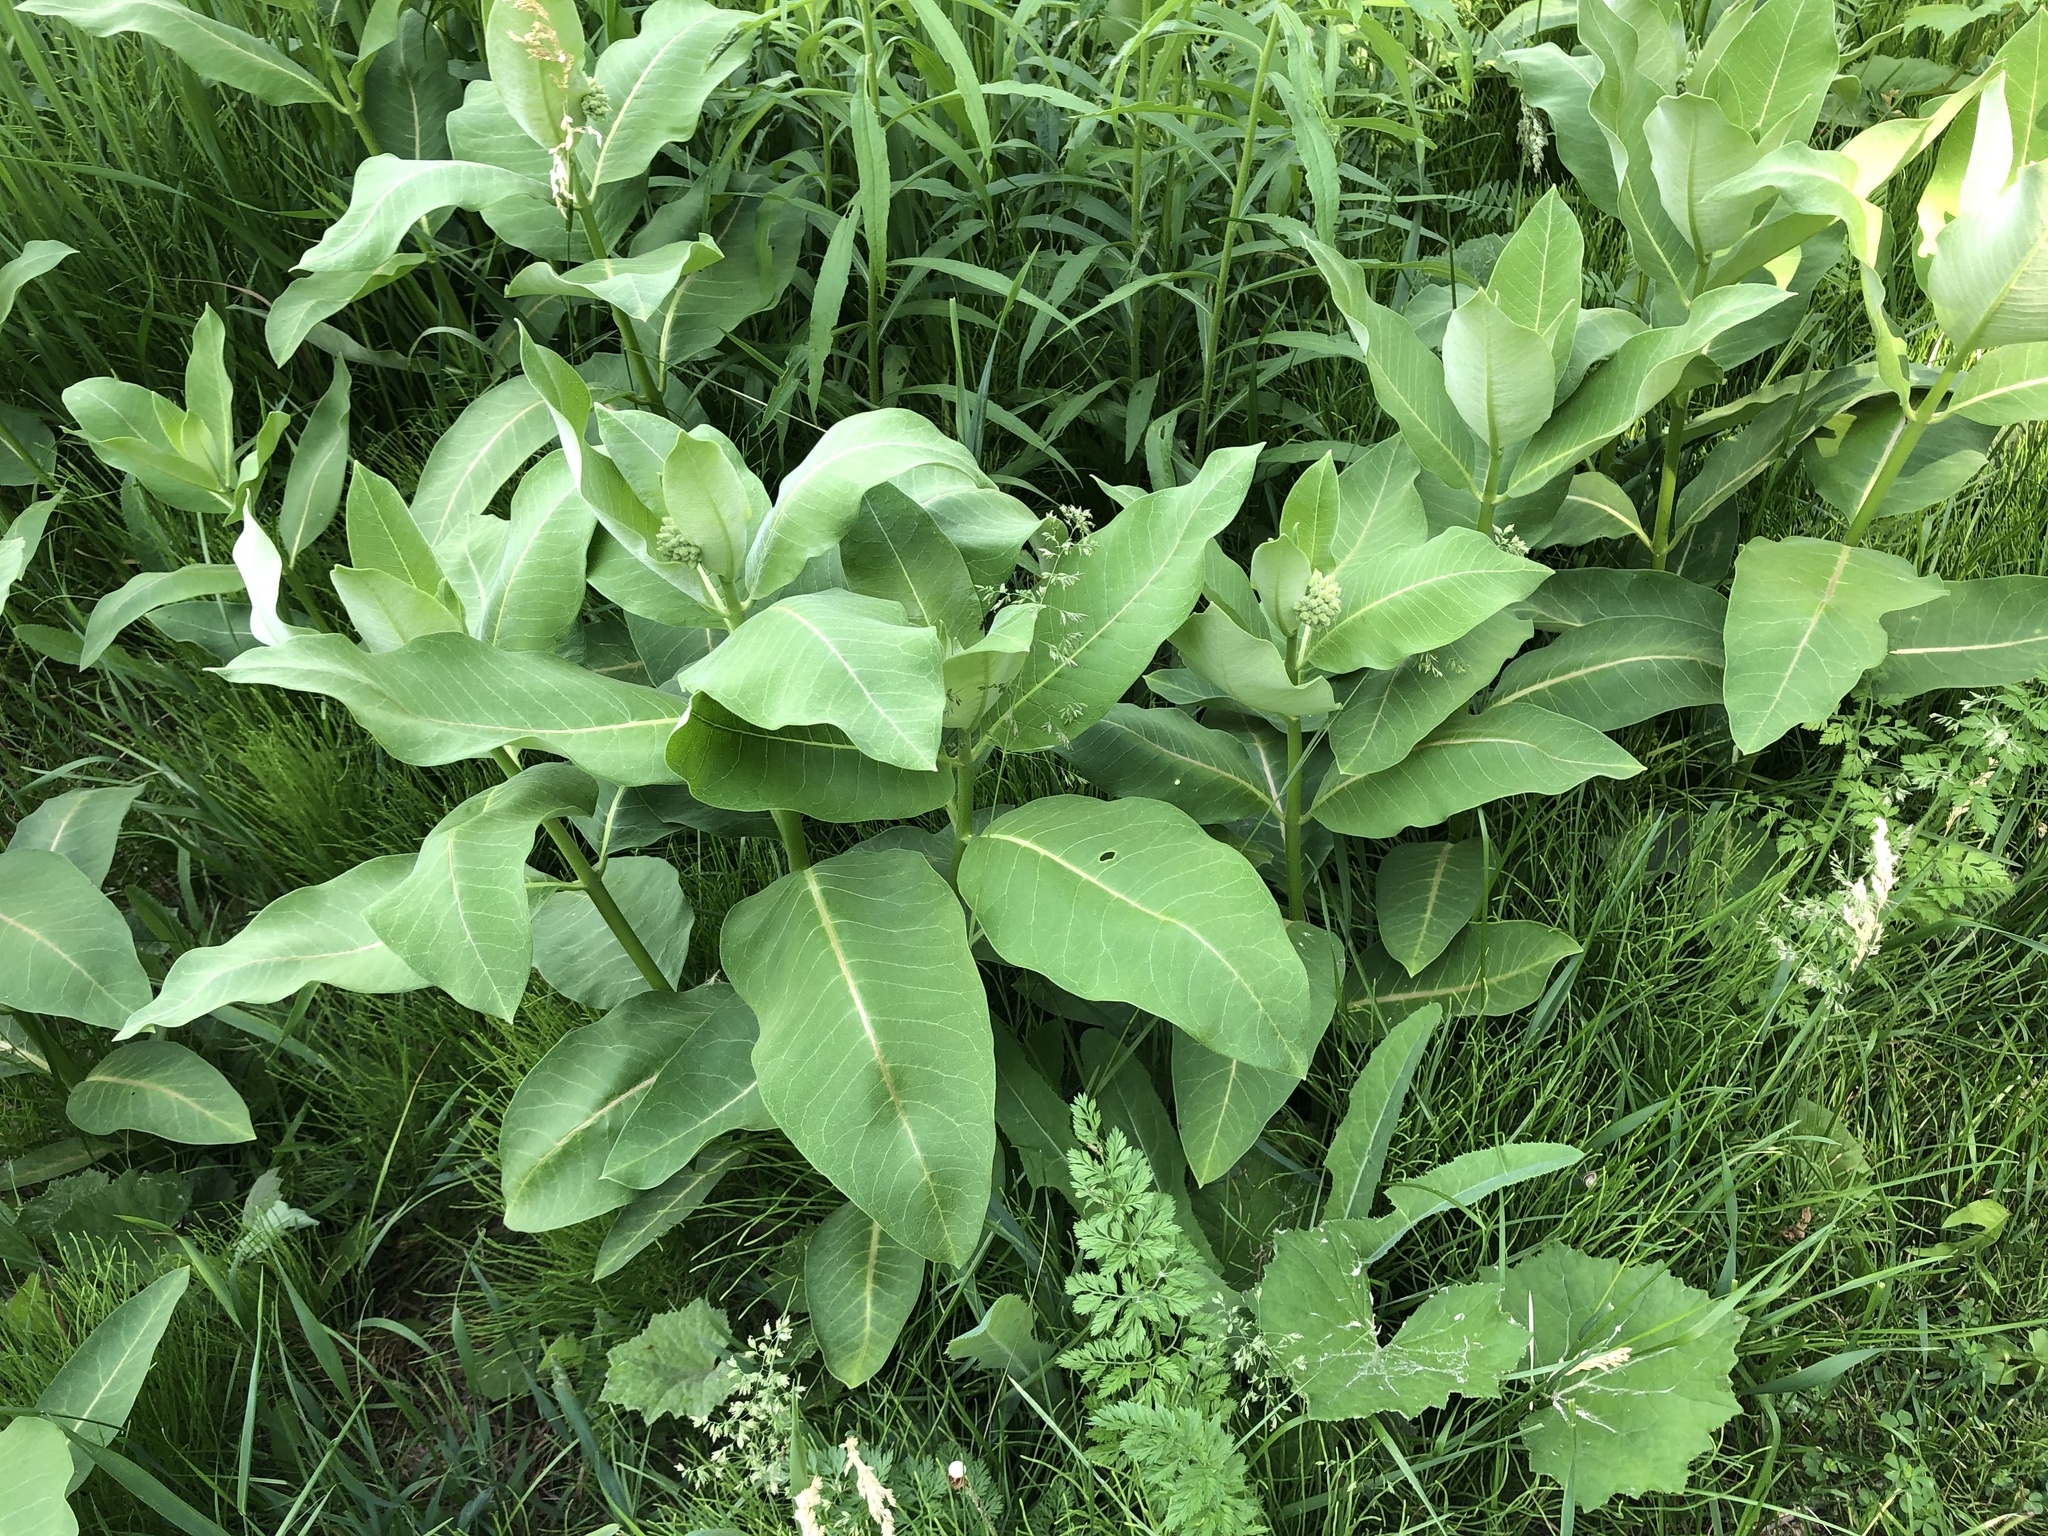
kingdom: Plantae
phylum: Tracheophyta
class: Magnoliopsida
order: Gentianales
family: Apocynaceae
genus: Asclepias
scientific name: Asclepias syriaca
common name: Common milkweed
